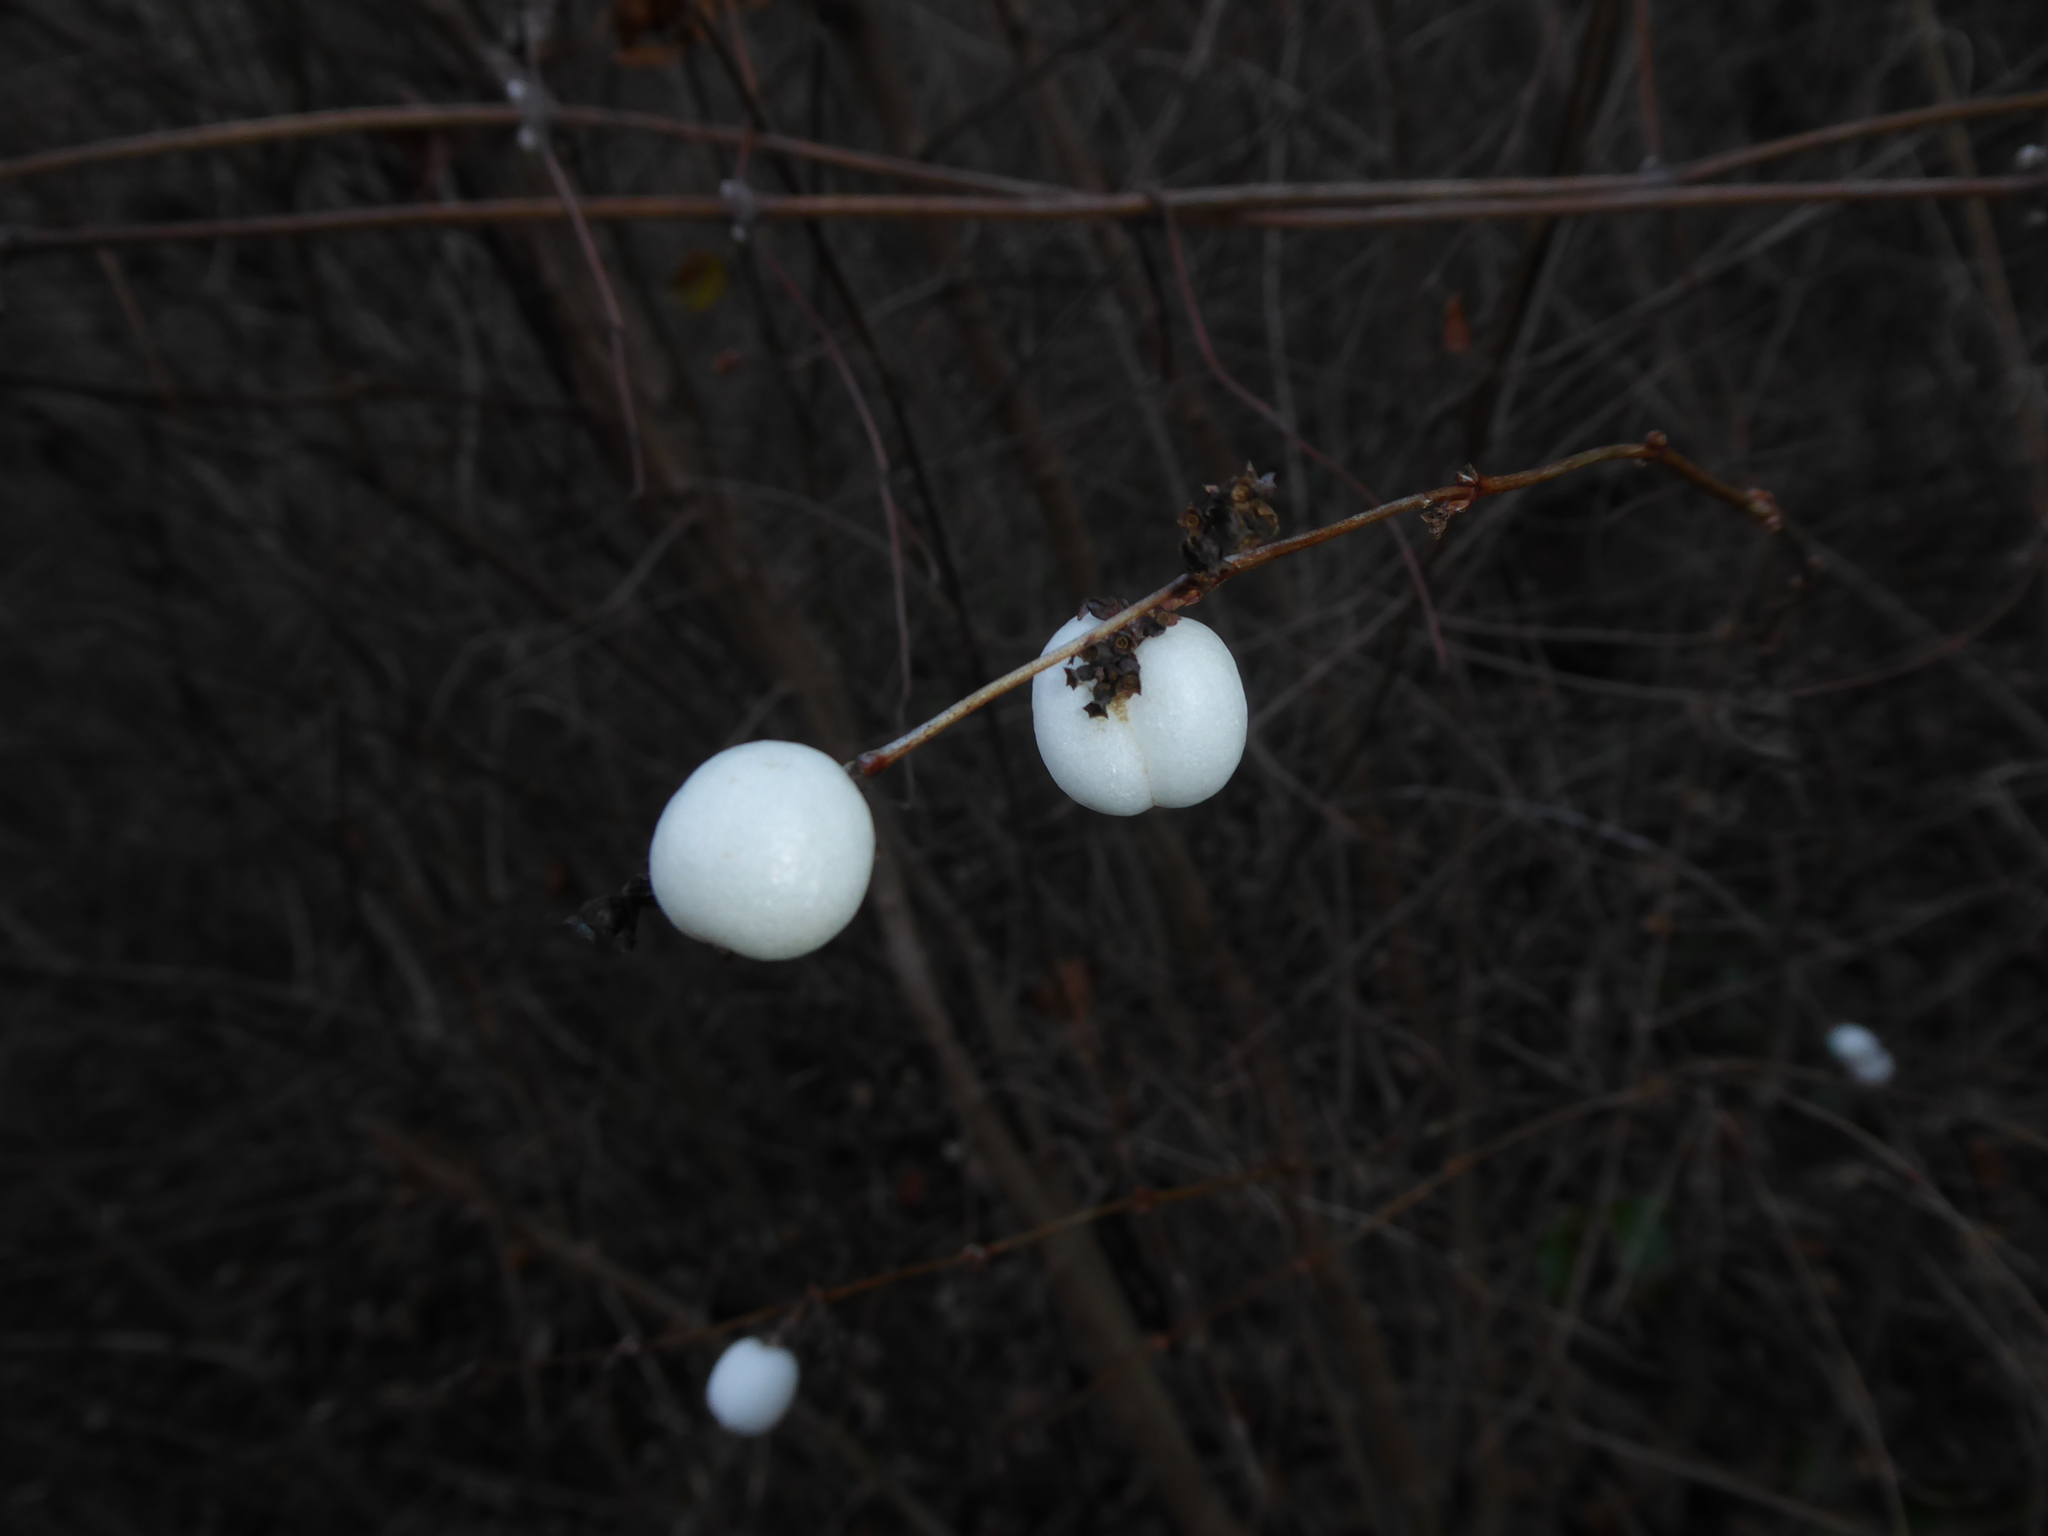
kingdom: Plantae
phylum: Tracheophyta
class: Magnoliopsida
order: Dipsacales
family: Caprifoliaceae
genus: Symphoricarpos
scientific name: Symphoricarpos albus
